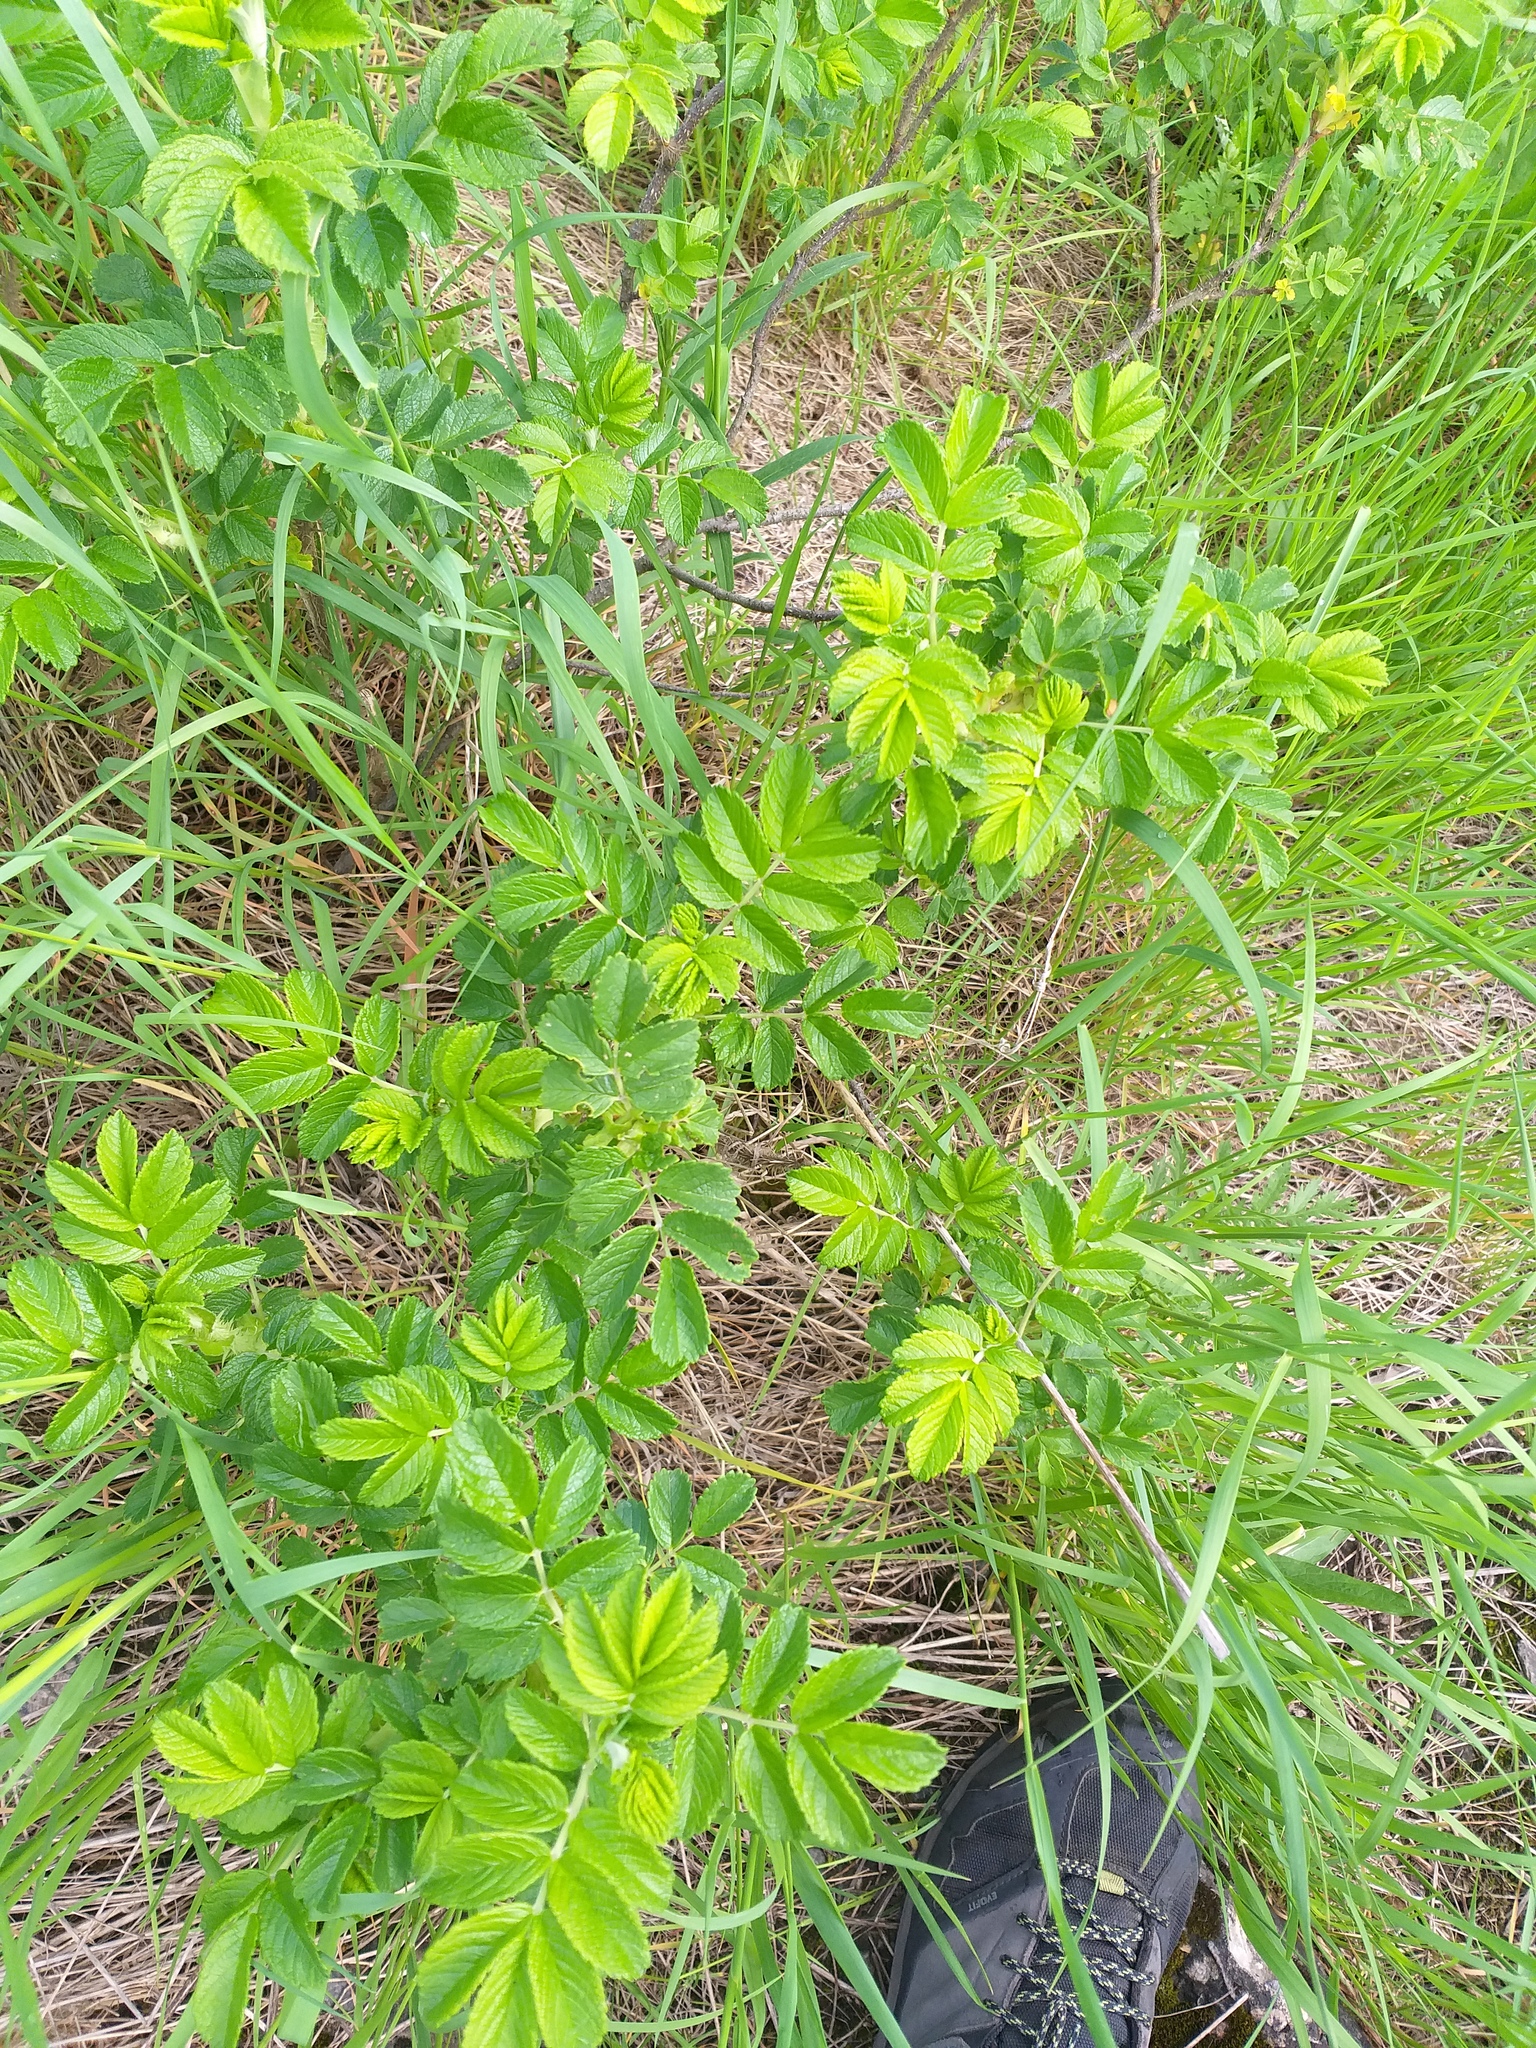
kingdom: Plantae
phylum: Tracheophyta
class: Magnoliopsida
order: Rosales
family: Rosaceae
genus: Rosa
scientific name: Rosa rugosa
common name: Japanese rose
